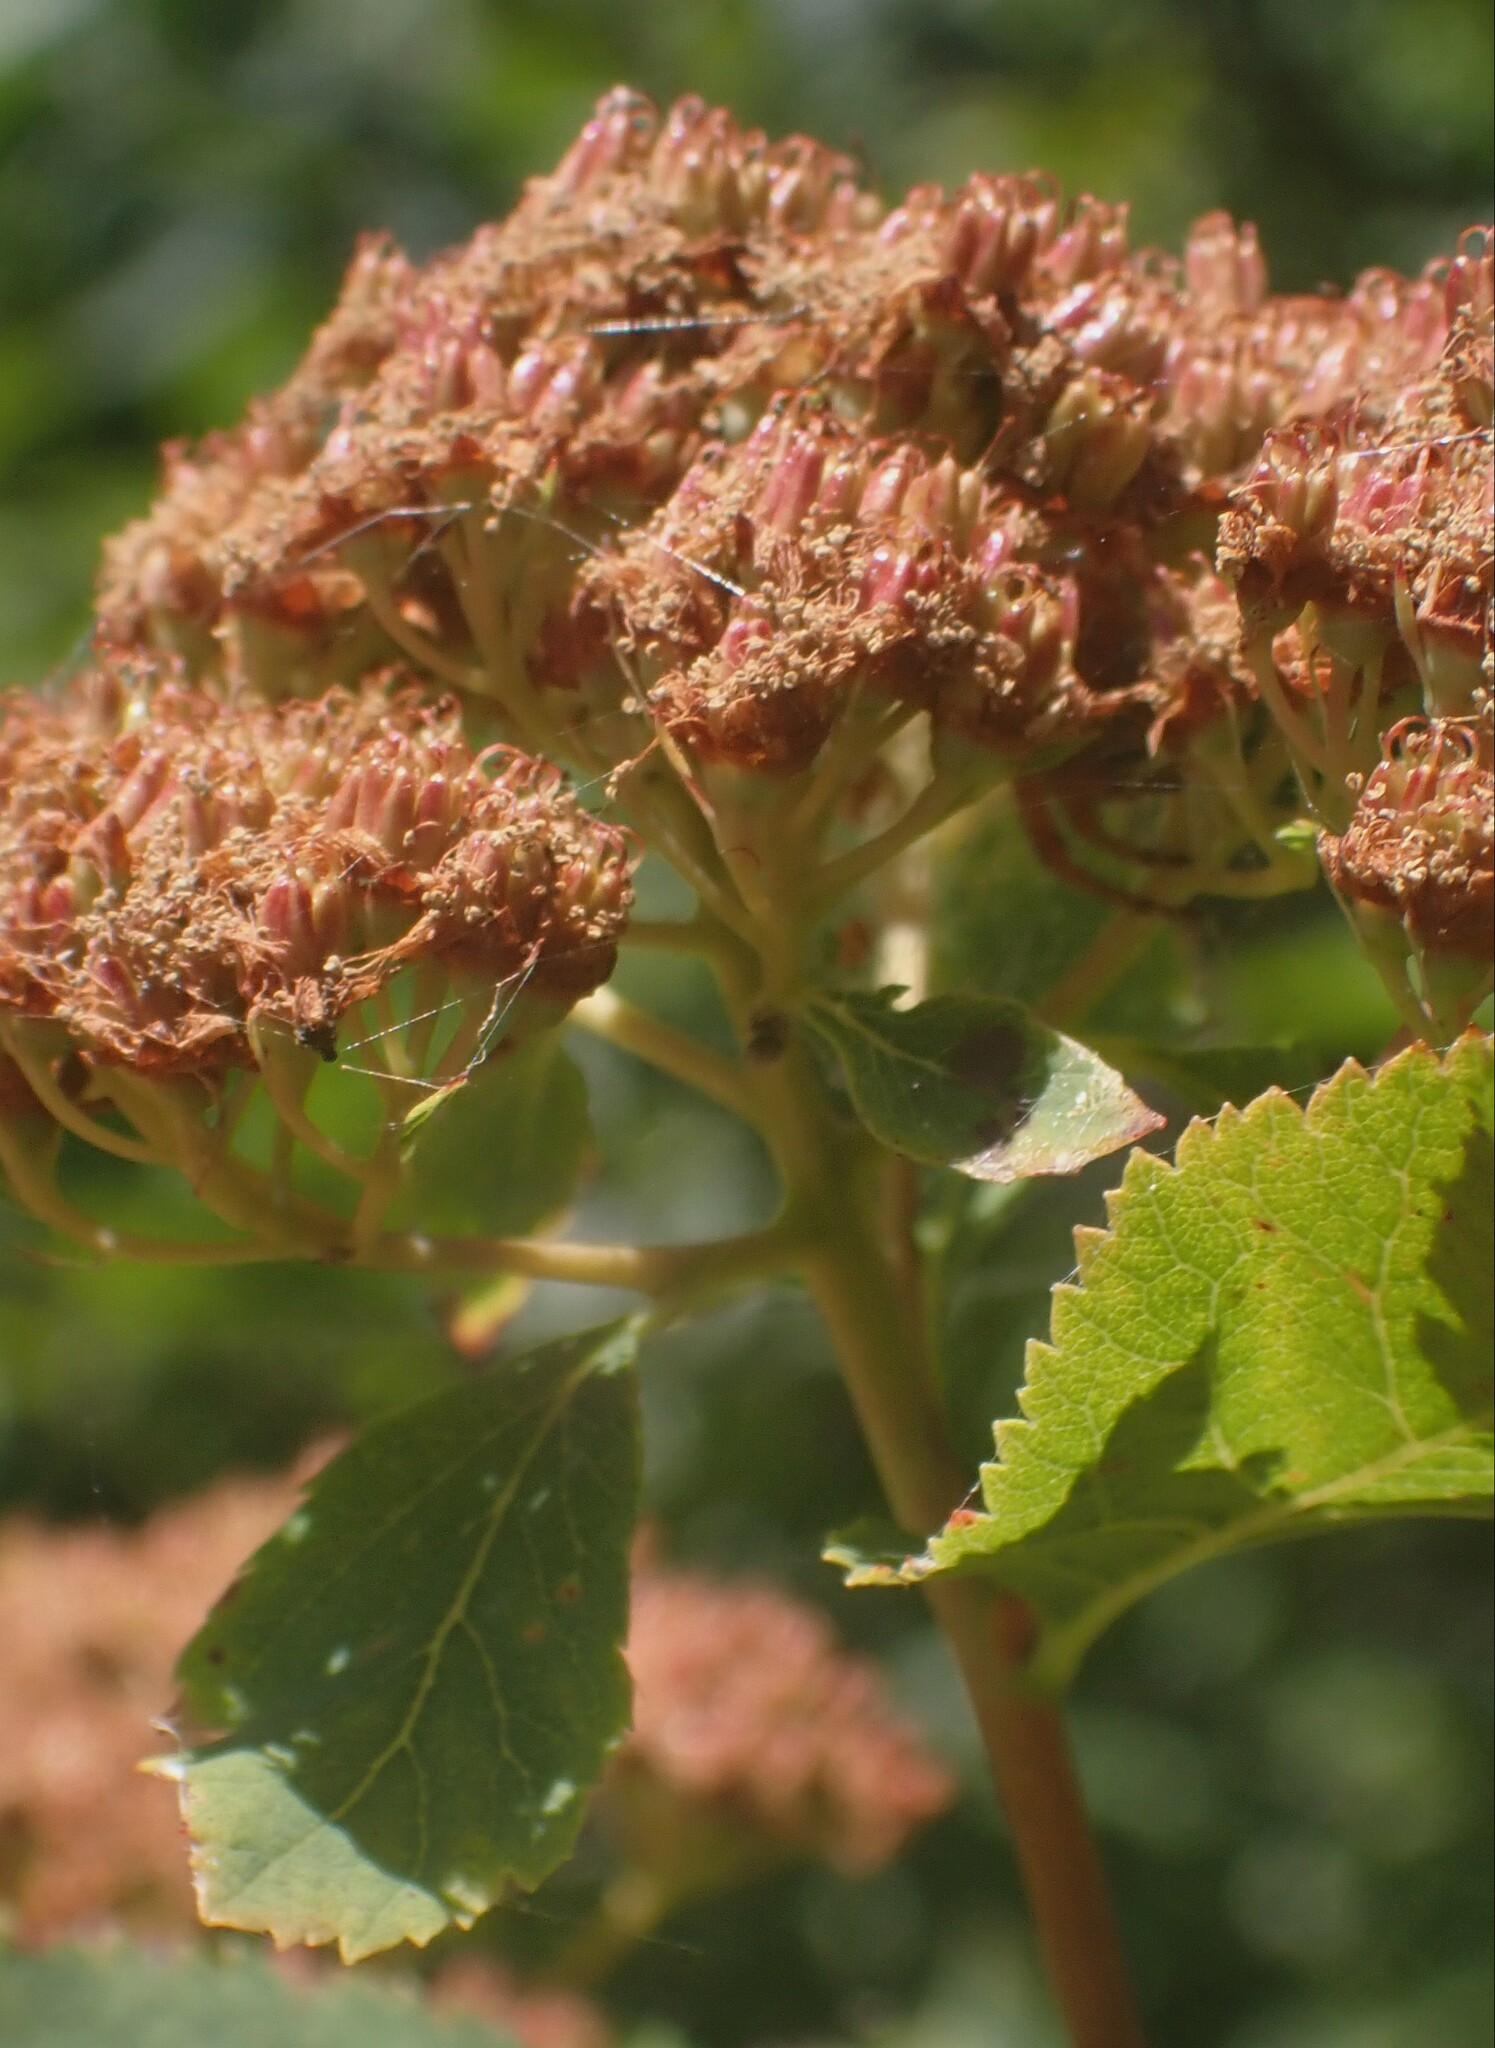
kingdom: Plantae
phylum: Tracheophyta
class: Magnoliopsida
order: Rosales
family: Rosaceae
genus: Spiraea
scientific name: Spiraea lucida
